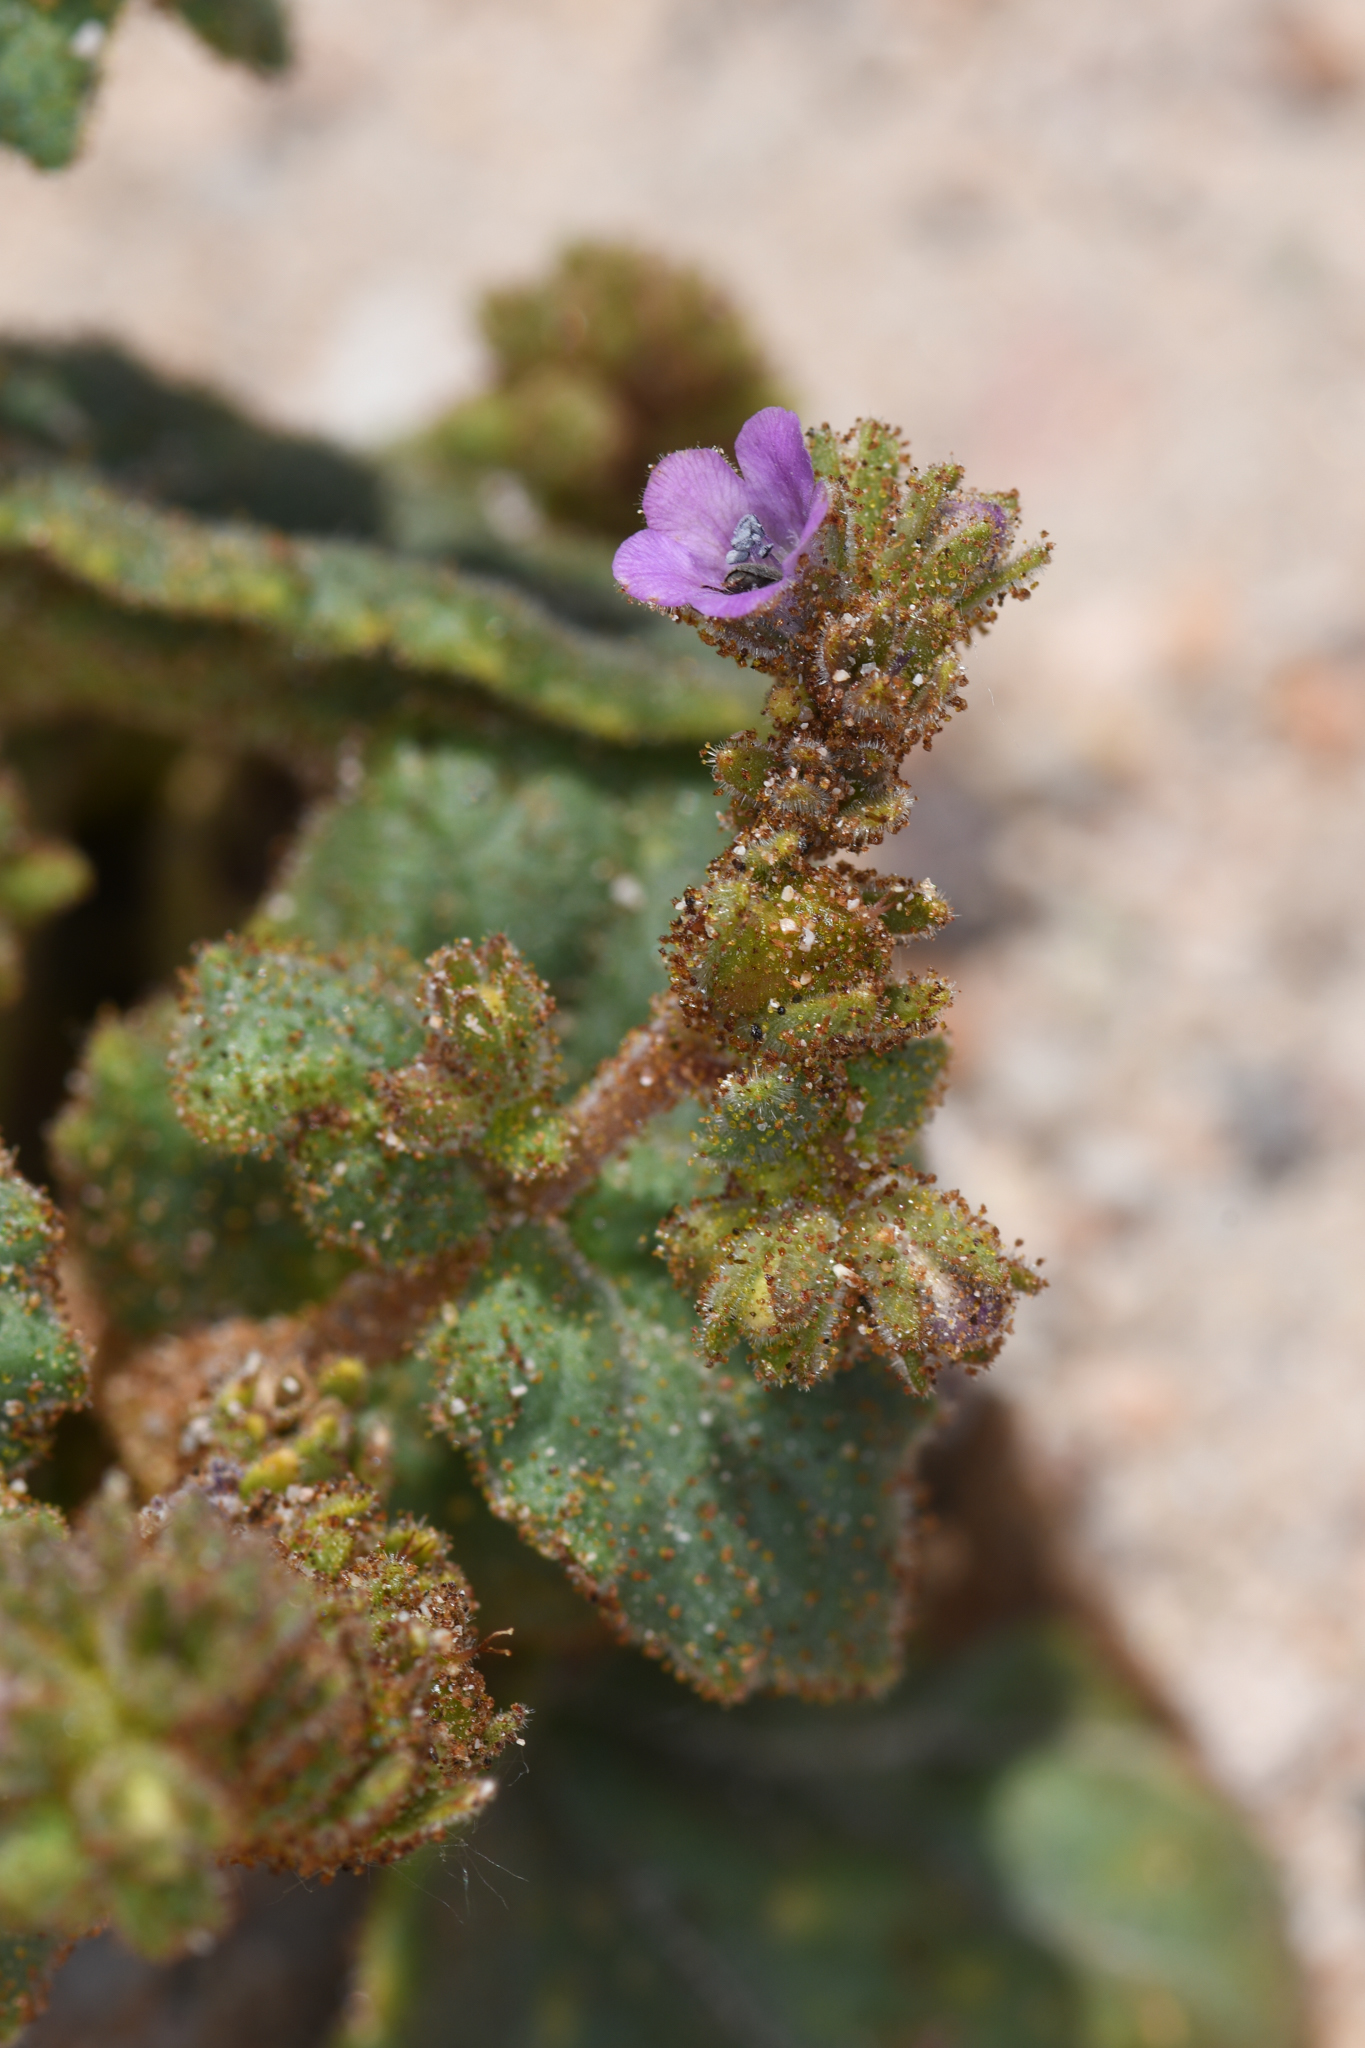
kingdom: Plantae
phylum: Tracheophyta
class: Magnoliopsida
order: Boraginales
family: Hydrophyllaceae
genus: Phacelia
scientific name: Phacelia pachyphylla
